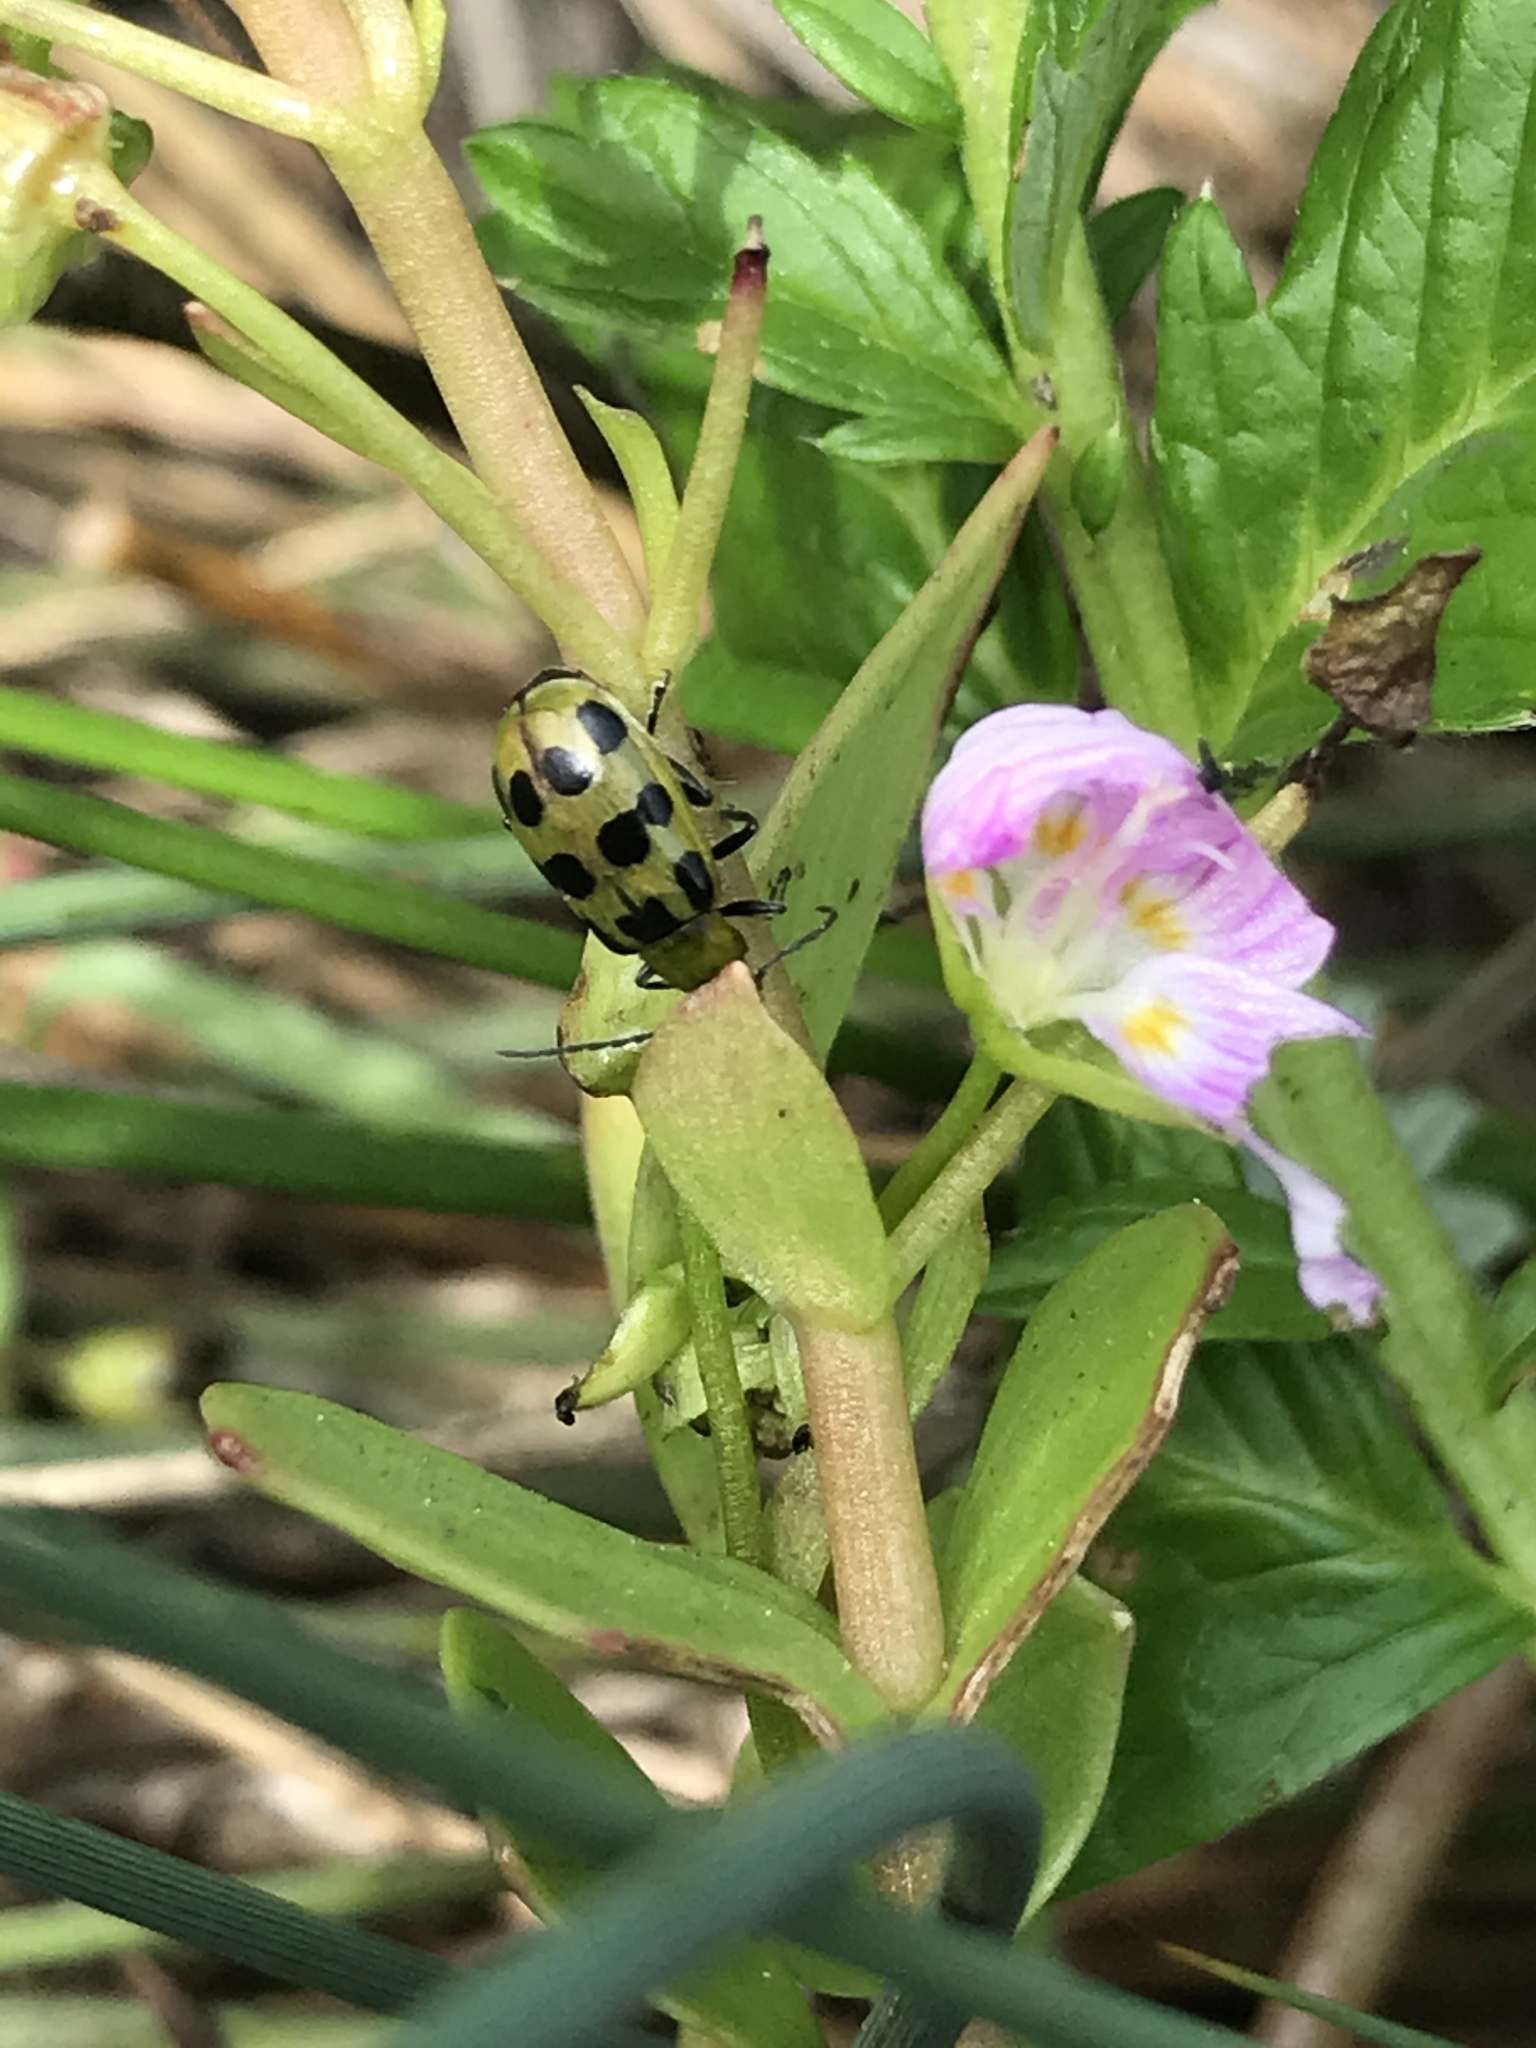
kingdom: Animalia
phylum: Arthropoda
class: Insecta
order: Coleoptera
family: Chrysomelidae
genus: Diabrotica
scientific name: Diabrotica undecimpunctata
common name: Spotted cucumber beetle
